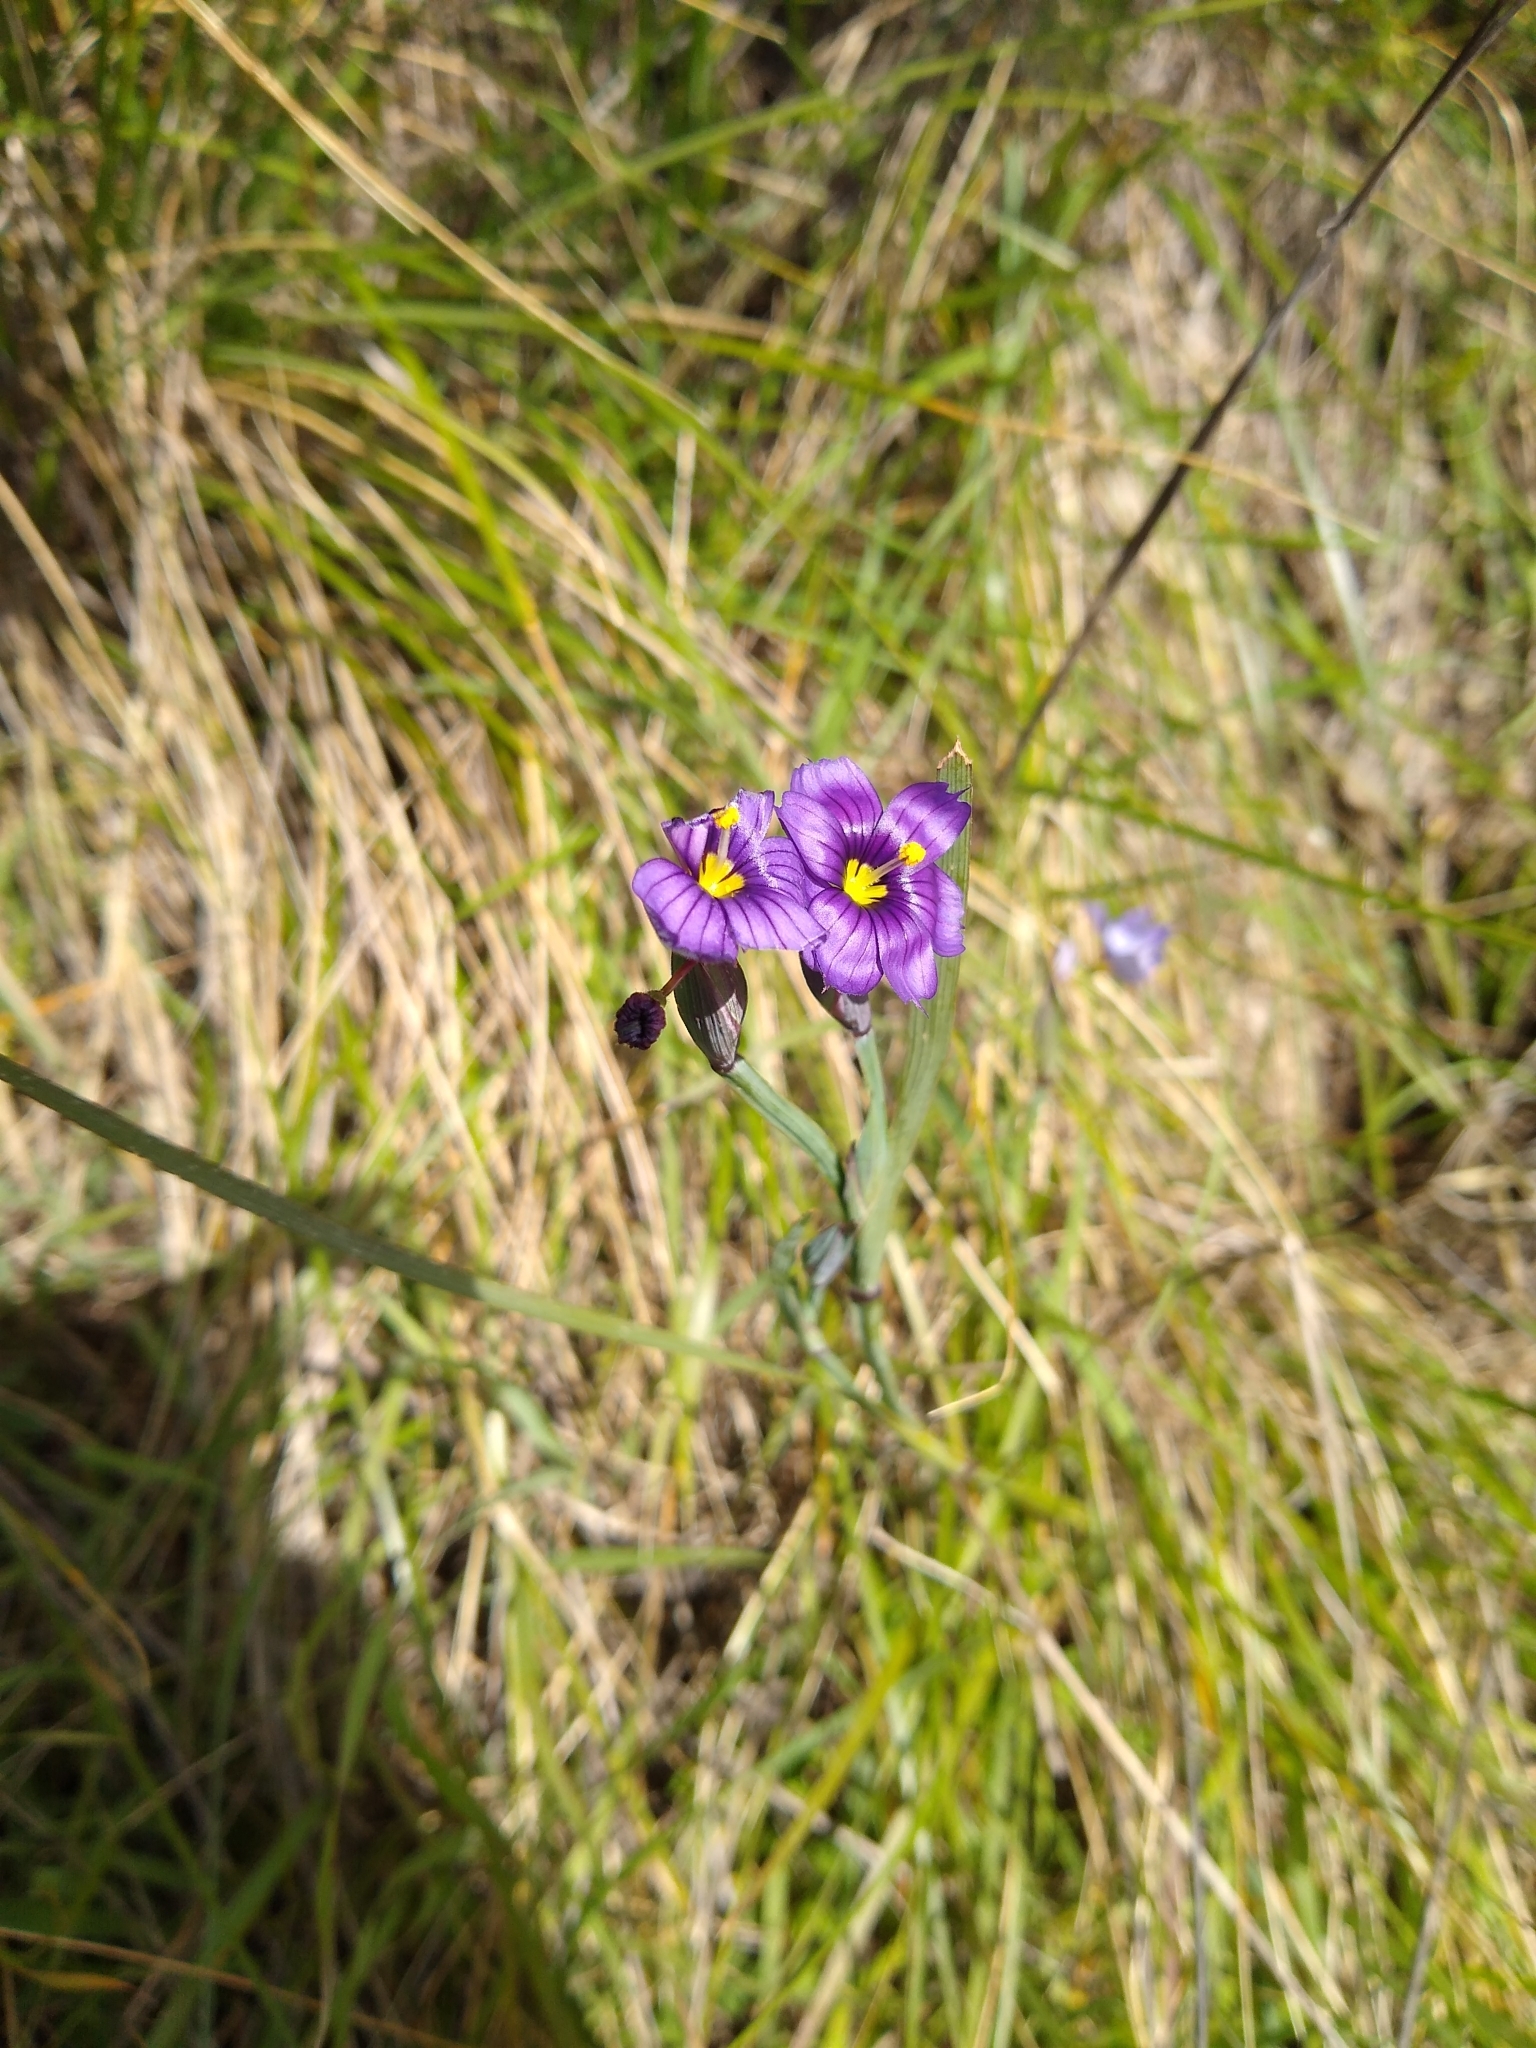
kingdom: Plantae
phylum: Tracheophyta
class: Liliopsida
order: Asparagales
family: Iridaceae
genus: Sisyrinchium
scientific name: Sisyrinchium bellum
